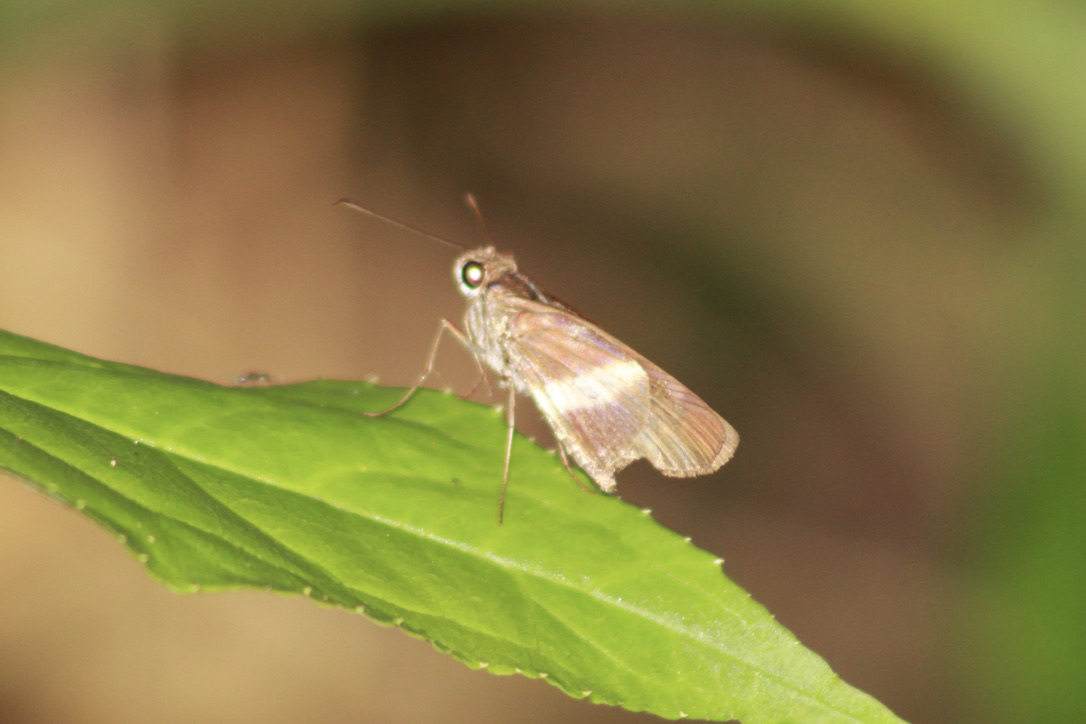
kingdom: Animalia
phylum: Arthropoda
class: Insecta
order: Lepidoptera
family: Hesperiidae
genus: Zenis
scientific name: Zenis jebus
